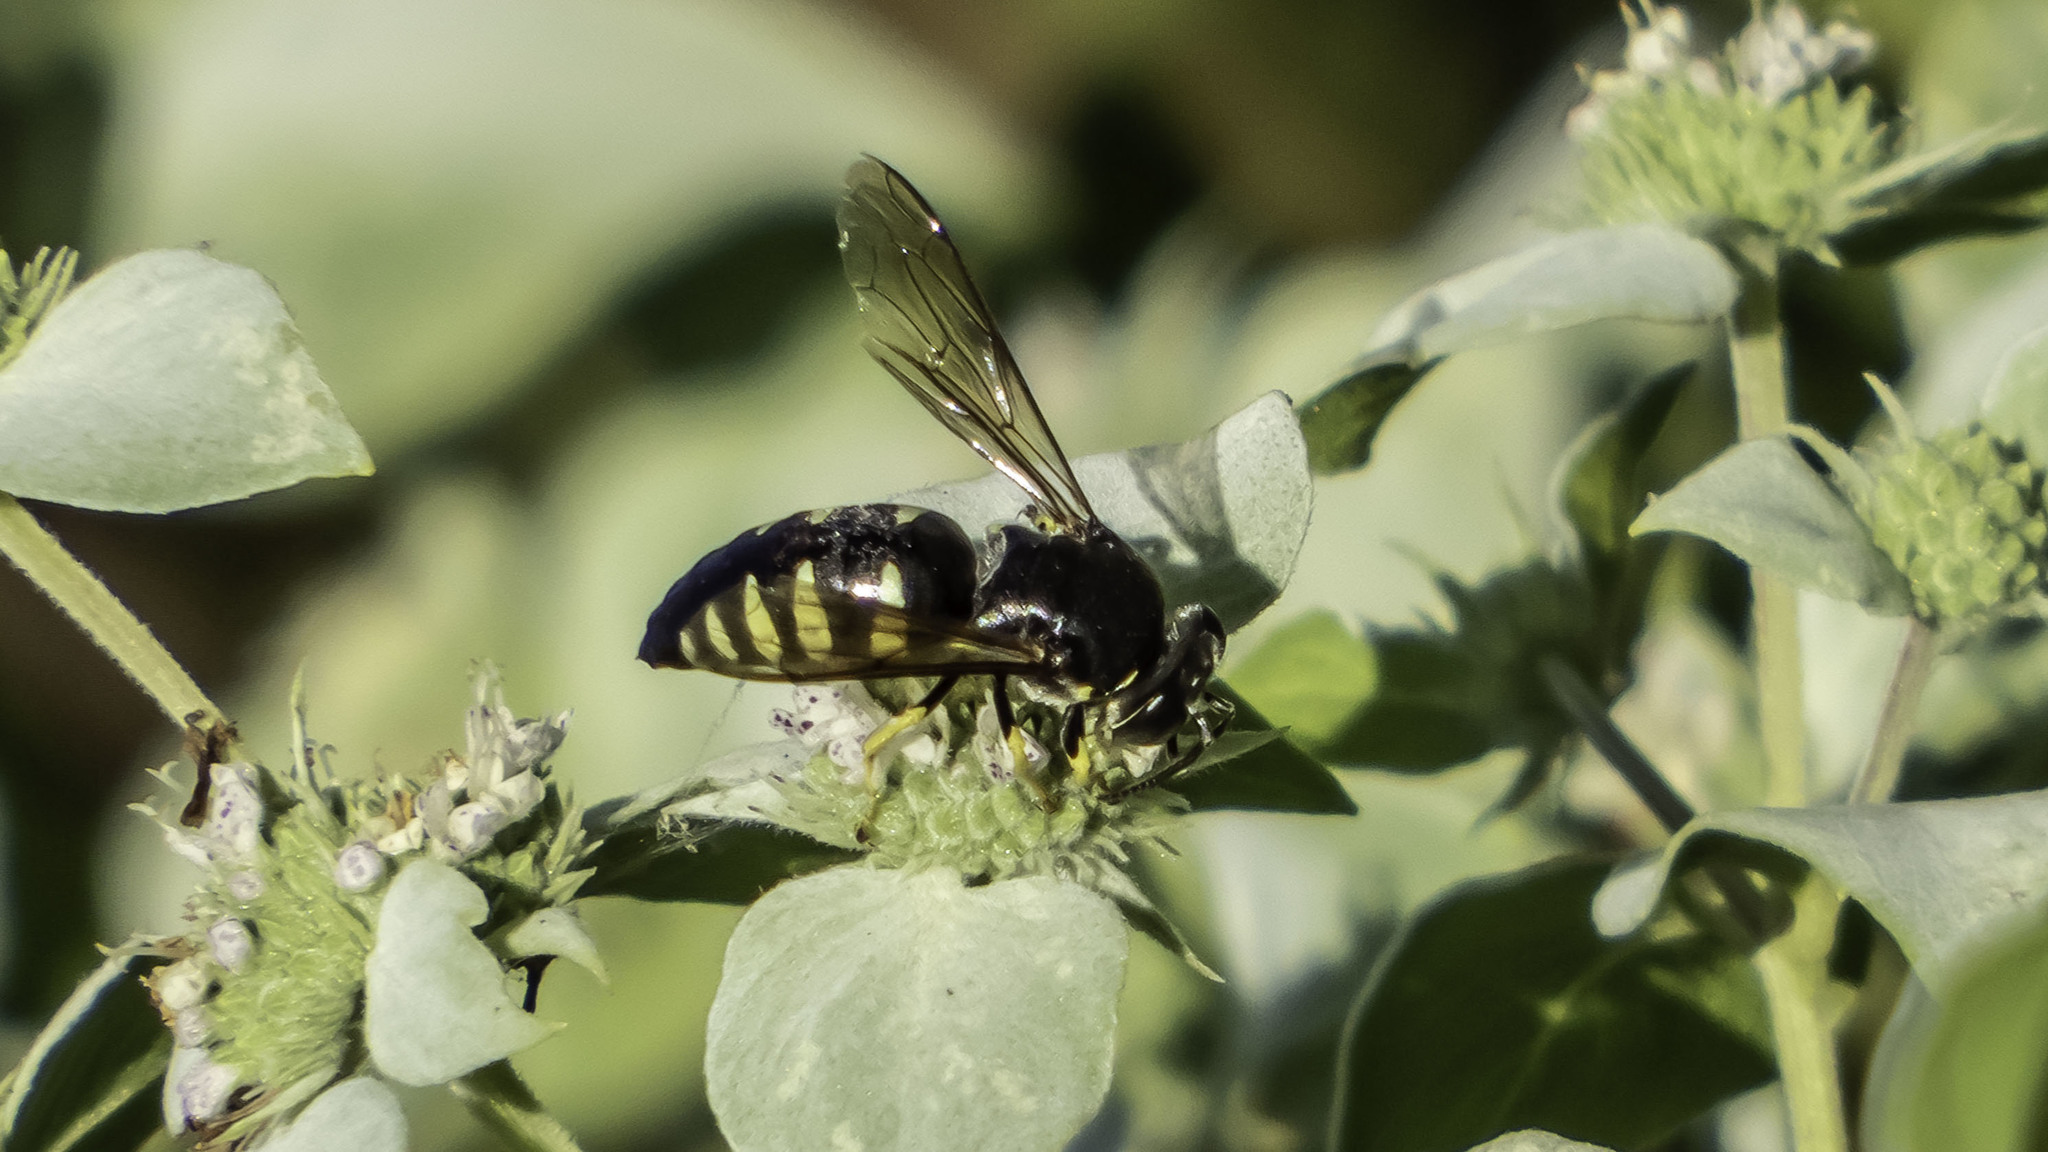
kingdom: Animalia
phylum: Arthropoda
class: Insecta
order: Hymenoptera
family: Crabronidae
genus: Bicyrtes
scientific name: Bicyrtes quadrifasciatus
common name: Four-banded stink bug hunter wasp
